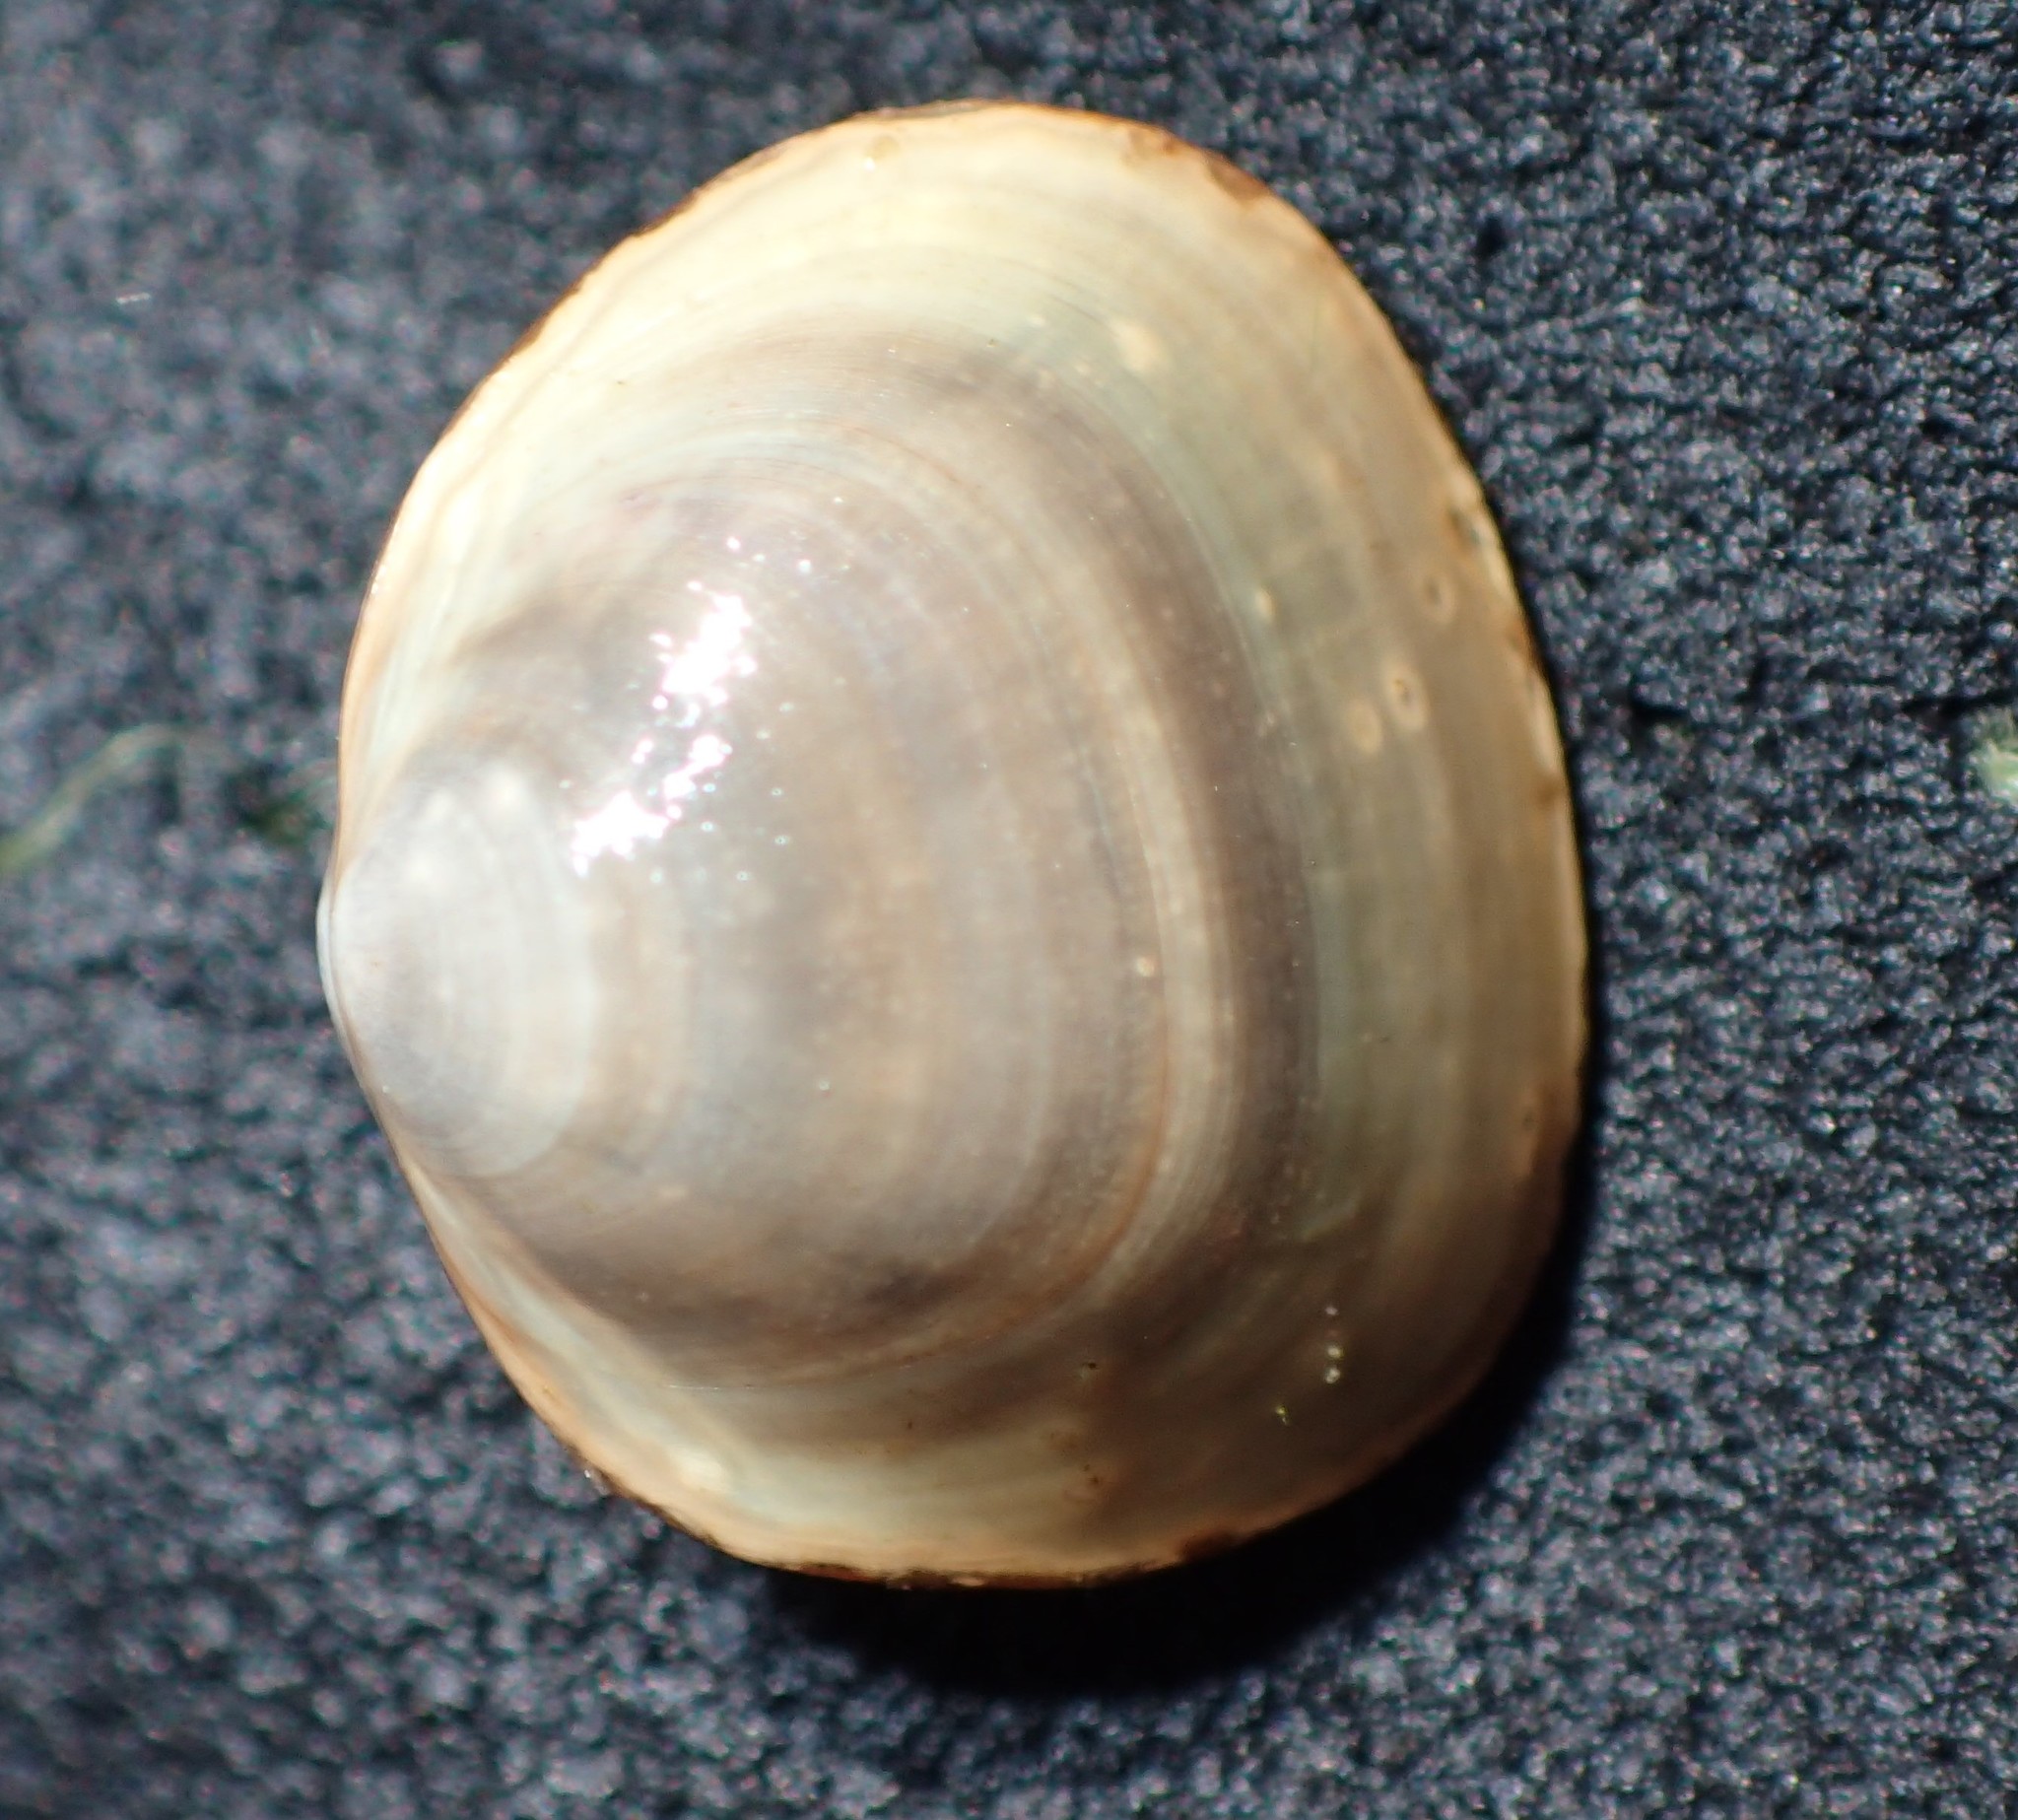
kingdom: Animalia
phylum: Mollusca
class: Bivalvia
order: Sphaeriida
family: Sphaeriidae
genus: Sphaerium
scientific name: Sphaerium rhomboideum
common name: Rhomboid fingernailclam
